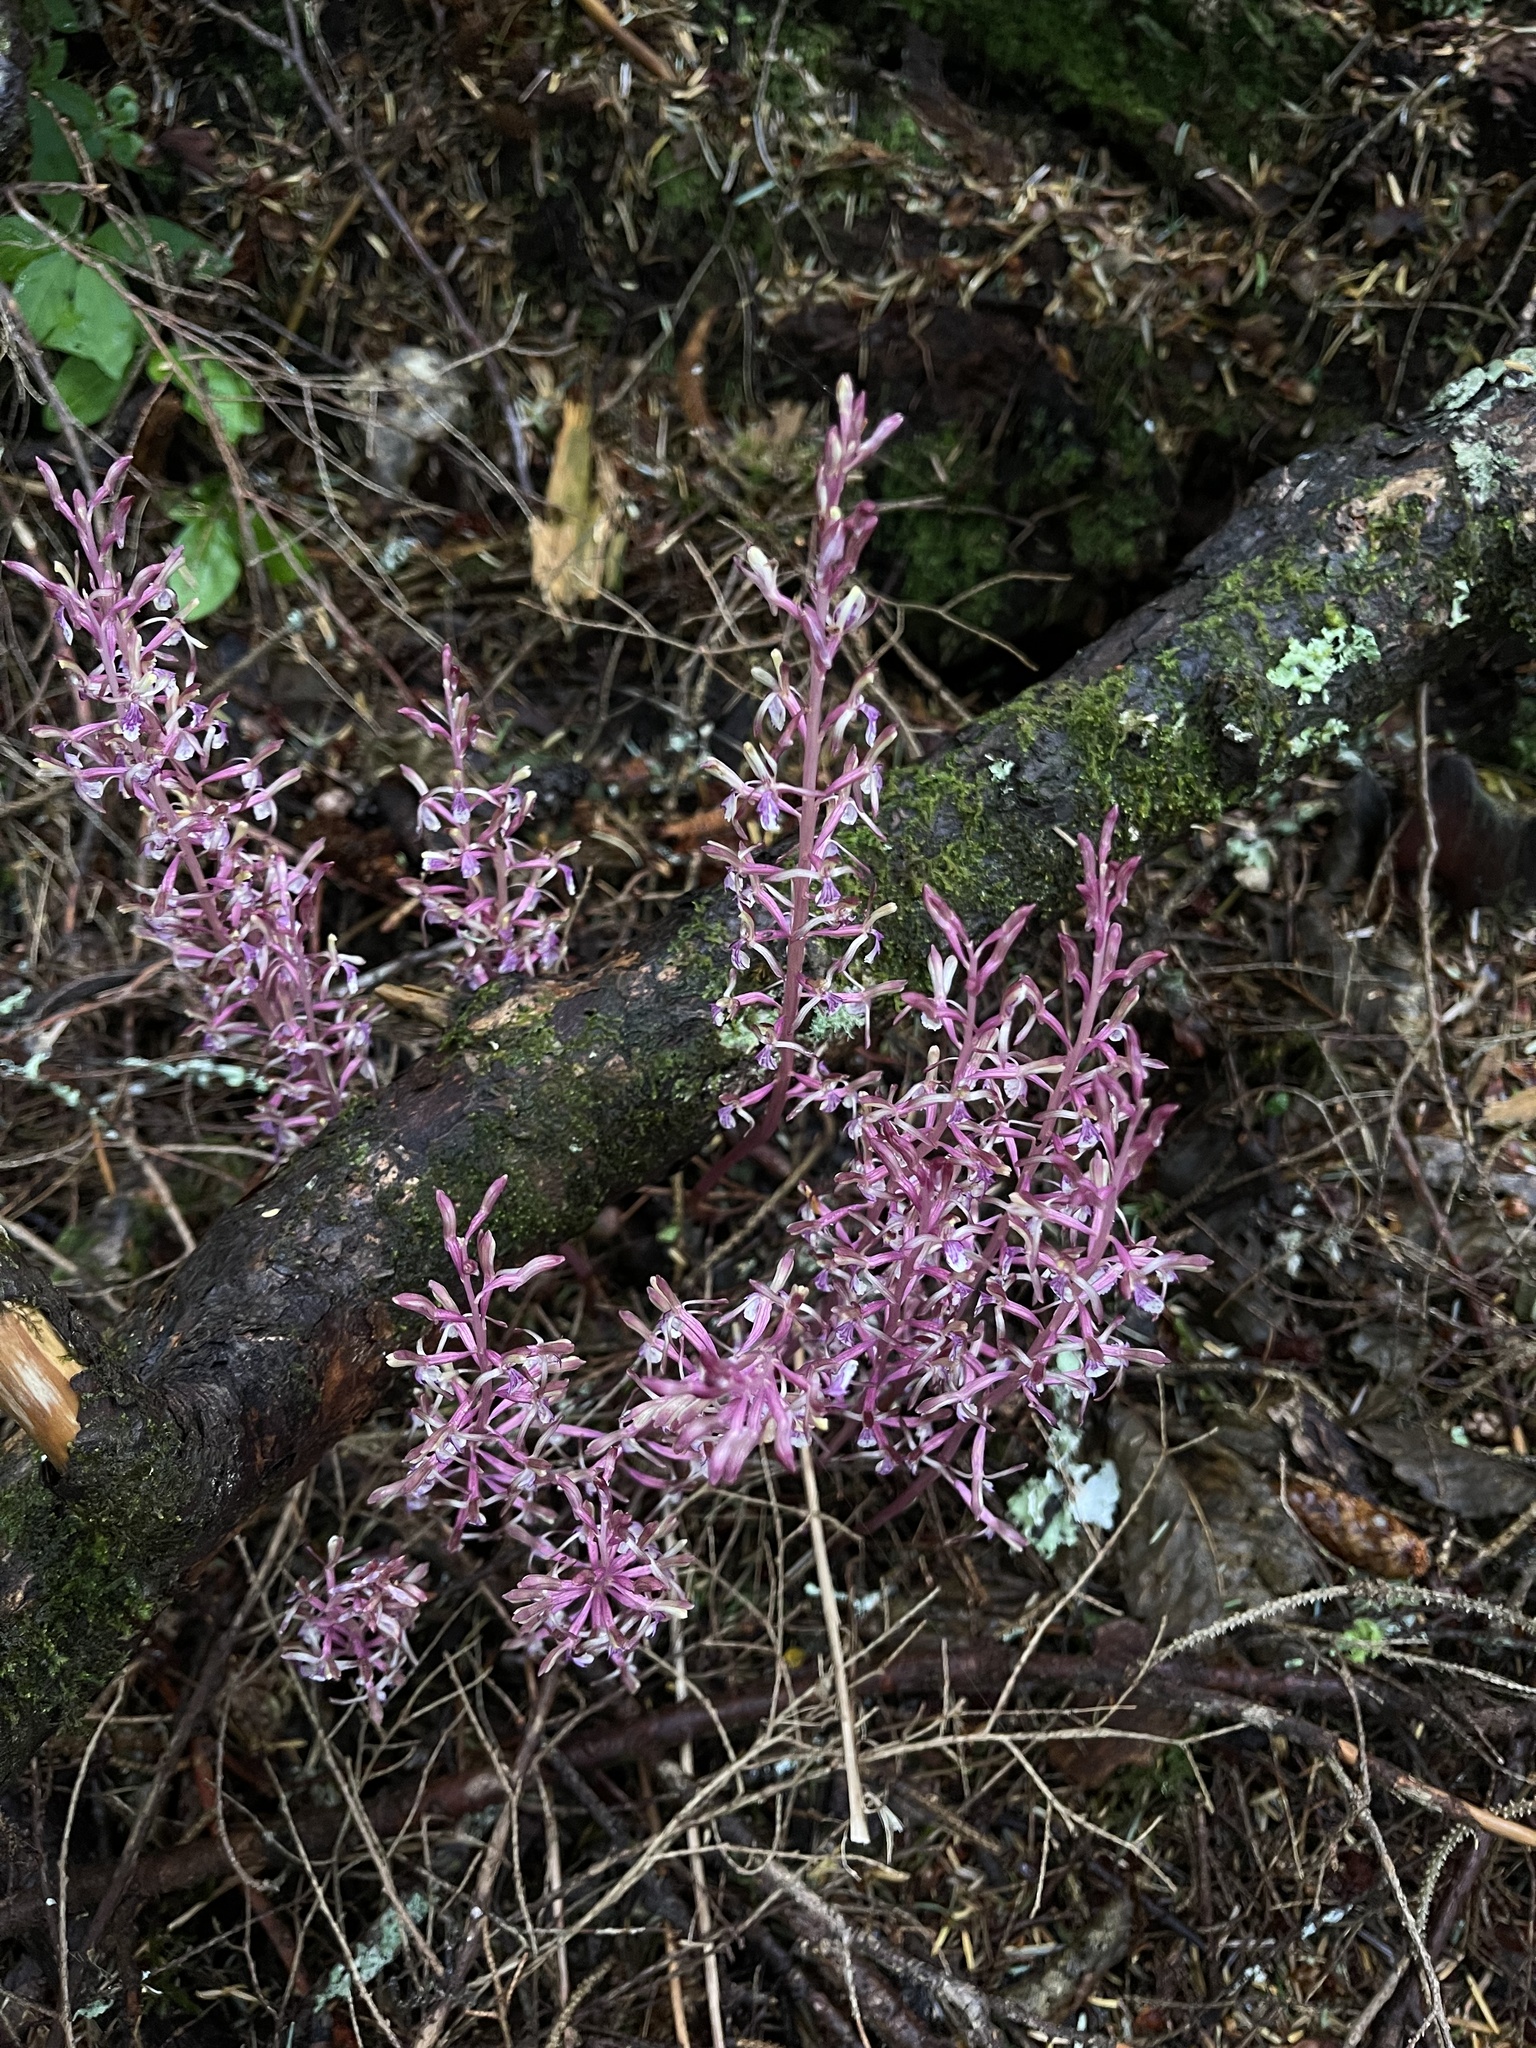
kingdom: Plantae
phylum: Tracheophyta
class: Liliopsida
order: Asparagales
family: Orchidaceae
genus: Corallorhiza
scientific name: Corallorhiza mertensiana
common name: Pacific coralroot
